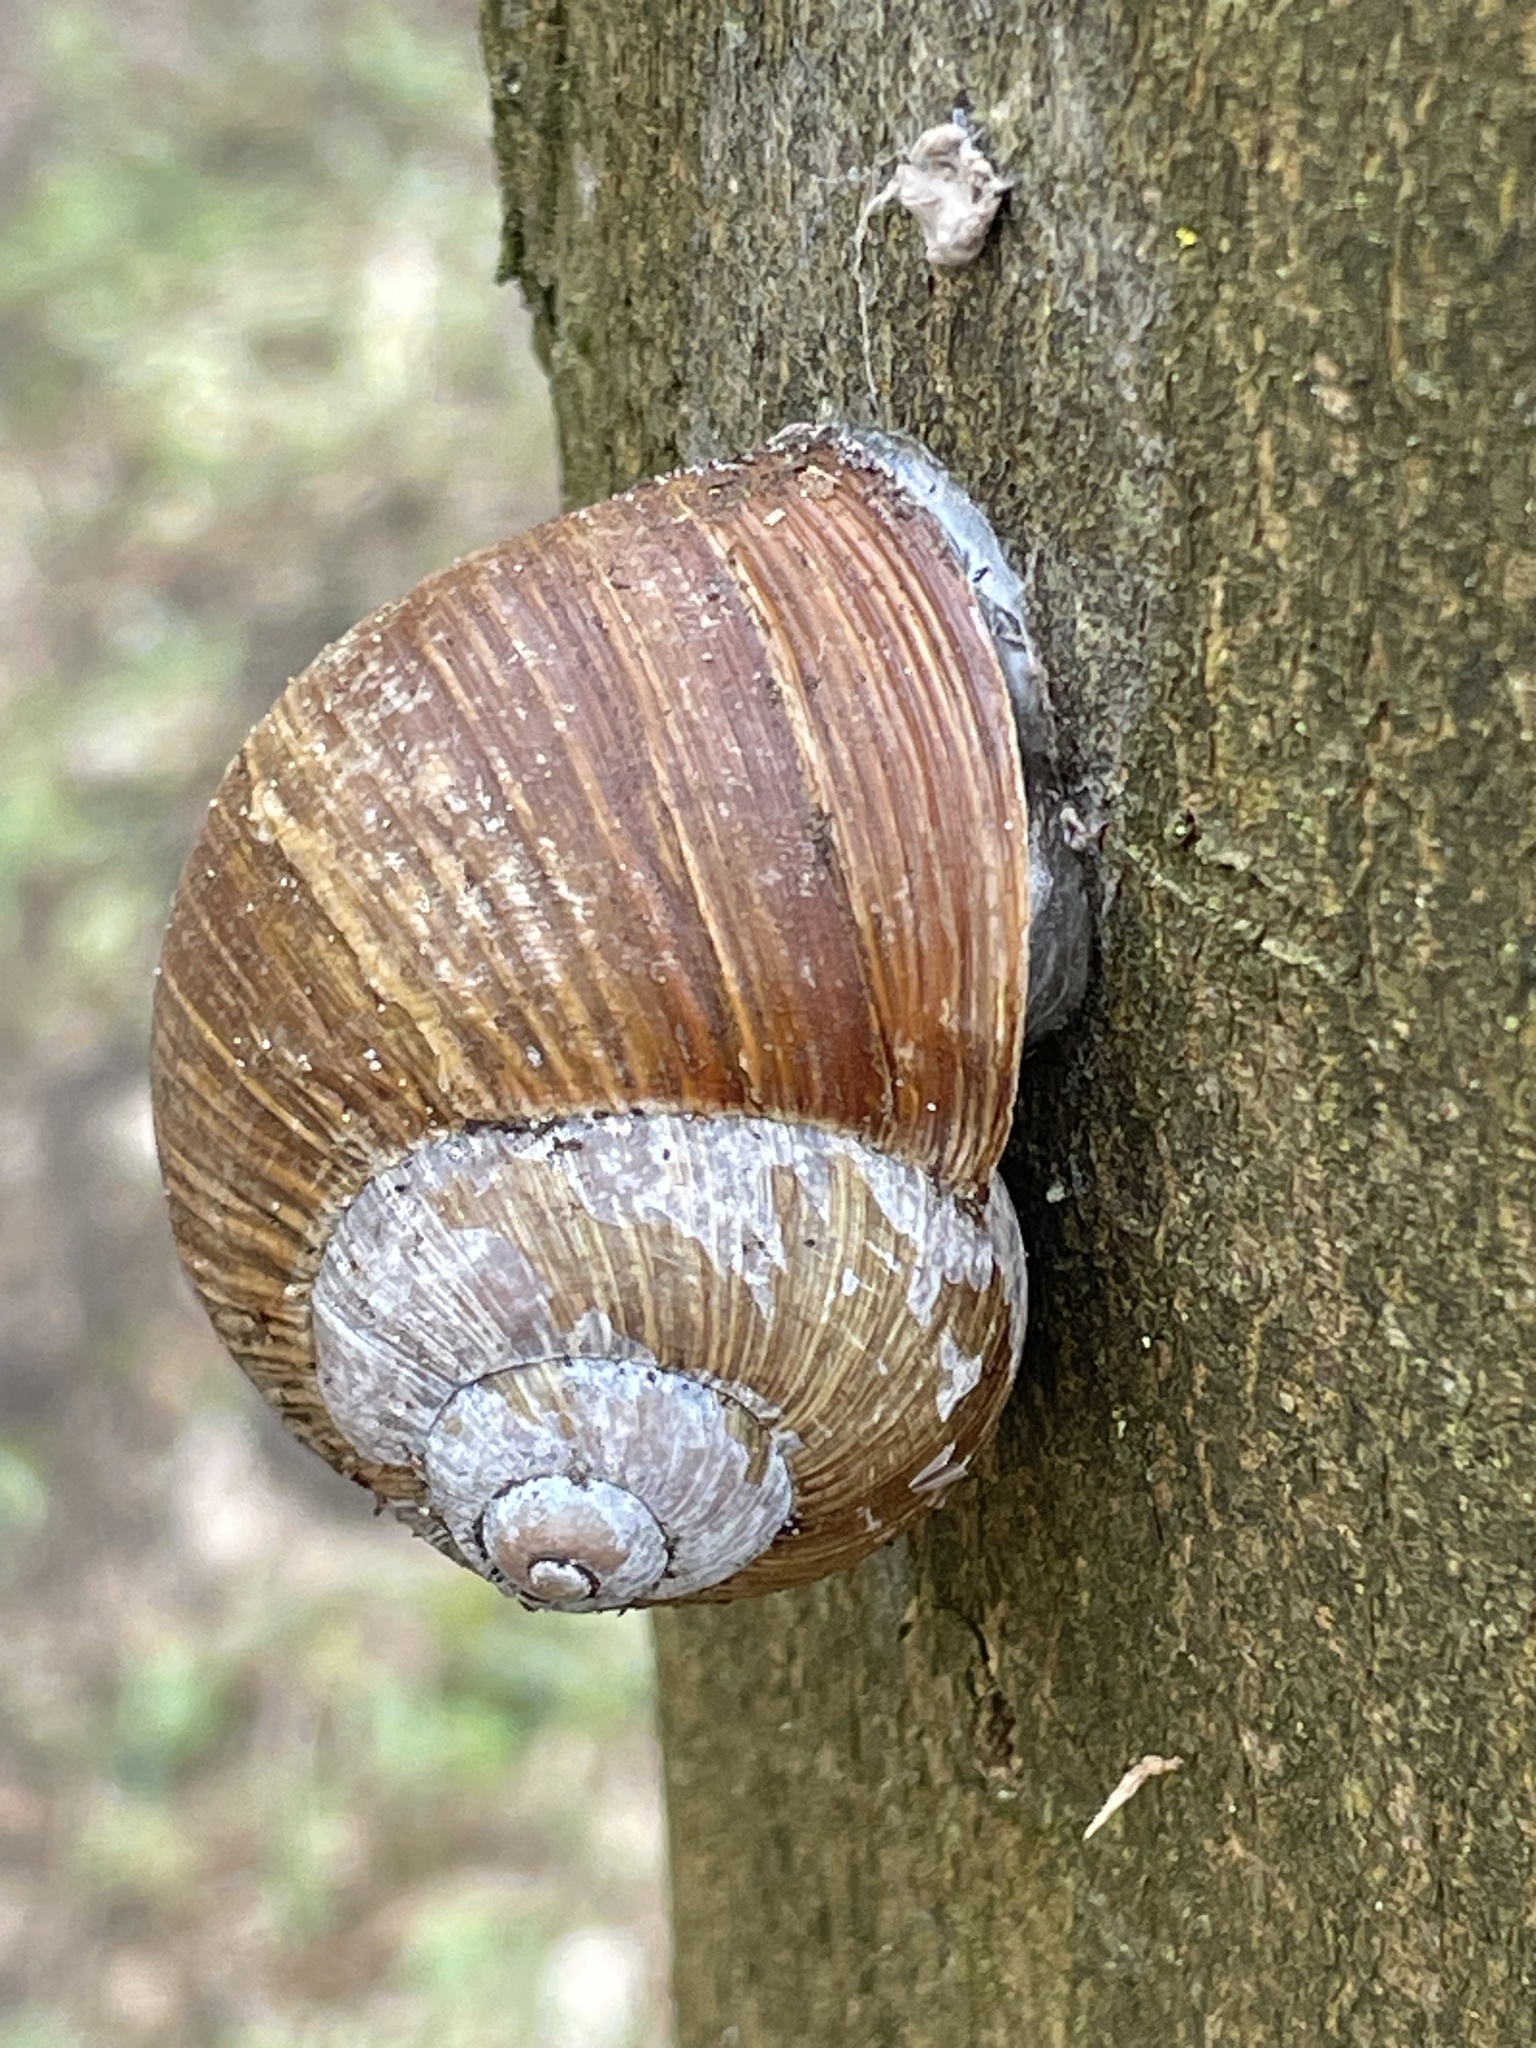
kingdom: Animalia
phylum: Mollusca
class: Gastropoda
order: Stylommatophora
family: Helicidae
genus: Helix
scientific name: Helix pomatia
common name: Roman snail
